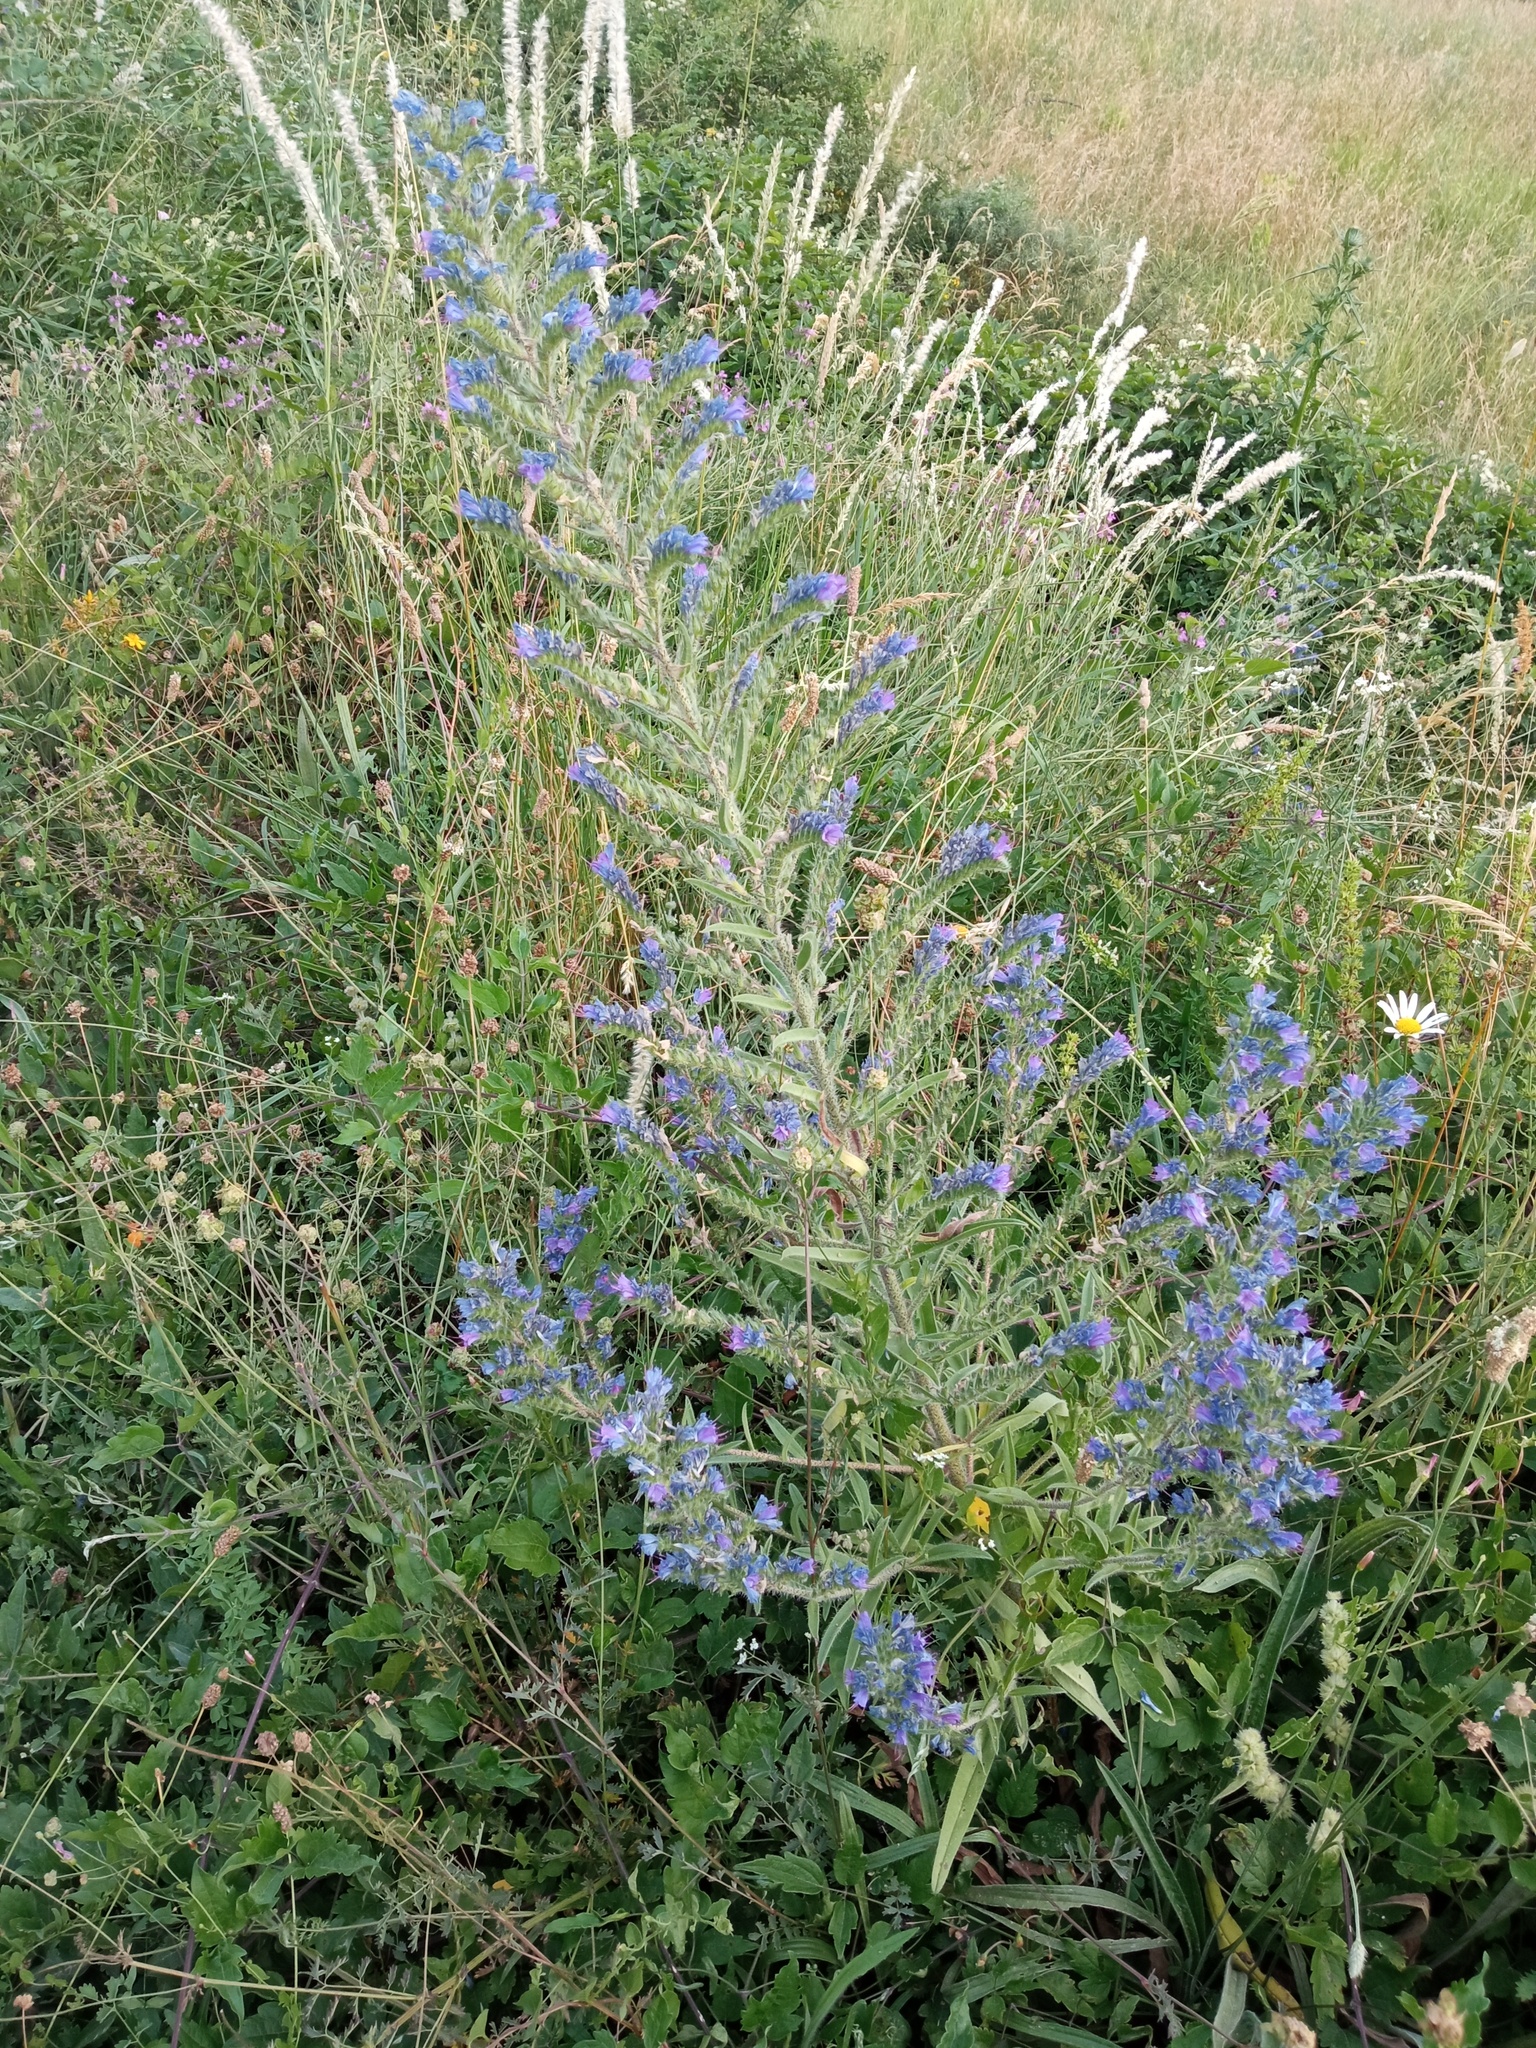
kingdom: Plantae
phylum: Tracheophyta
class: Magnoliopsida
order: Boraginales
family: Boraginaceae
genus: Echium
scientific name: Echium vulgare
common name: Common viper's bugloss
